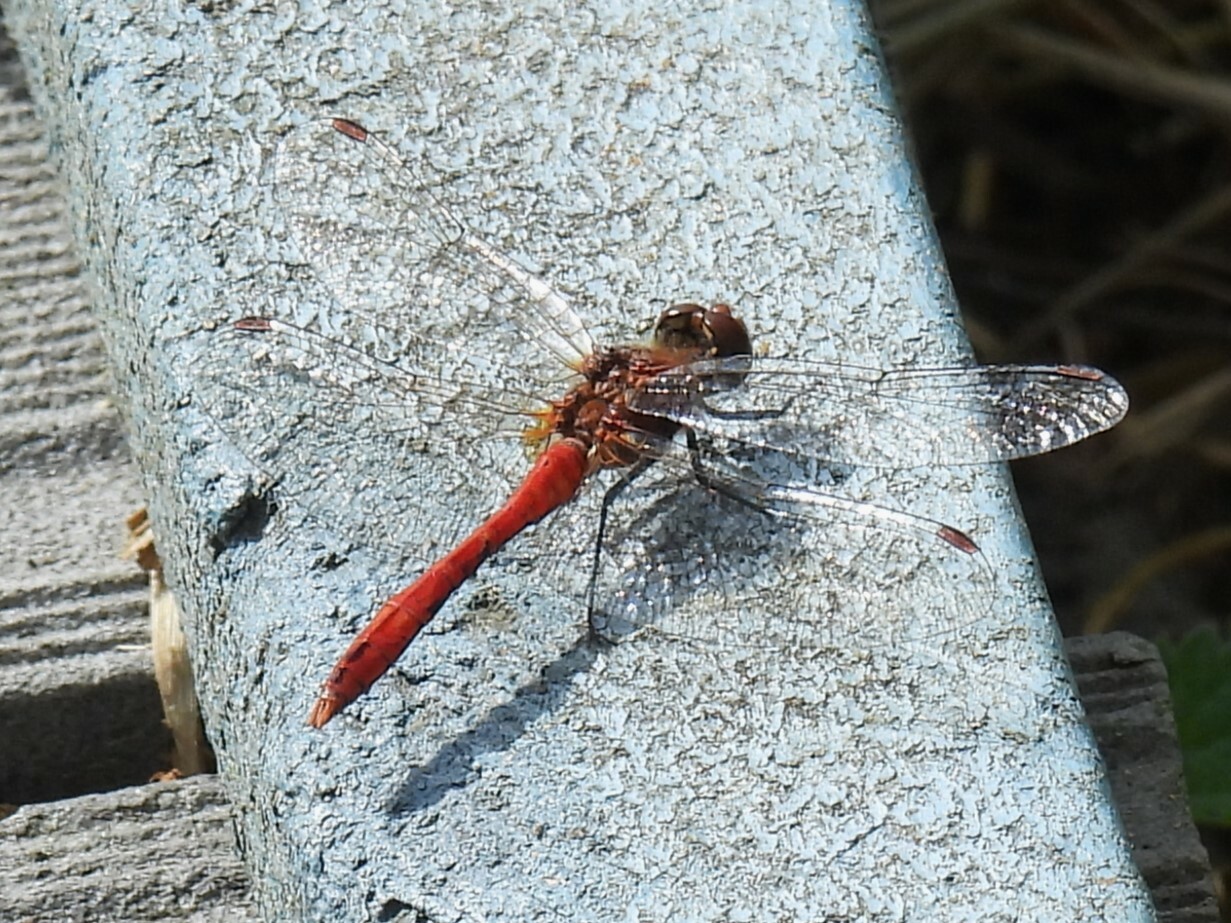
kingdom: Animalia
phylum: Arthropoda
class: Insecta
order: Odonata
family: Libellulidae
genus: Sympetrum
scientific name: Sympetrum sanguineum
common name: Ruddy darter
